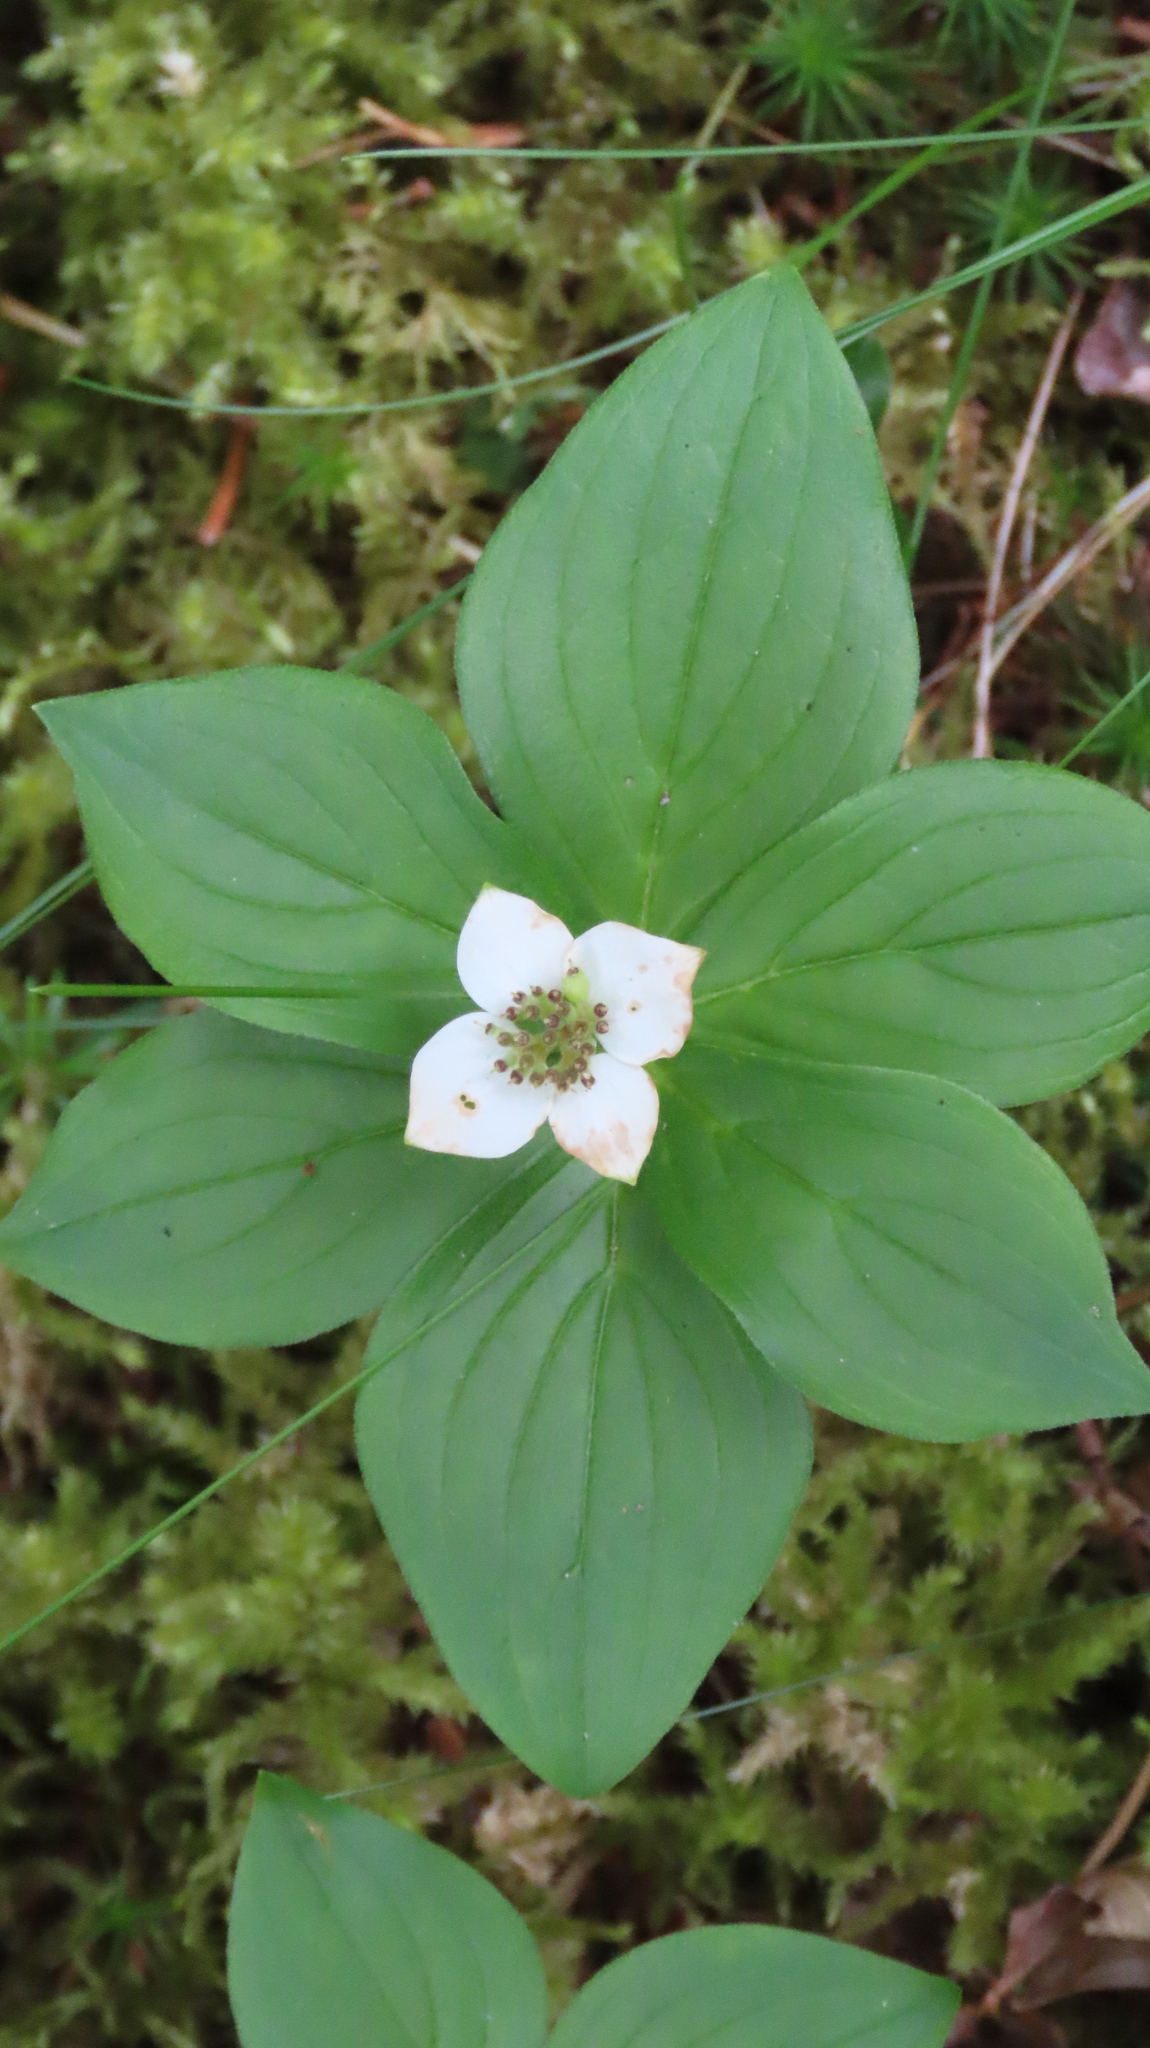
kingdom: Plantae
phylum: Tracheophyta
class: Magnoliopsida
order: Cornales
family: Cornaceae
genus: Cornus
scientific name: Cornus canadensis
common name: Creeping dogwood
